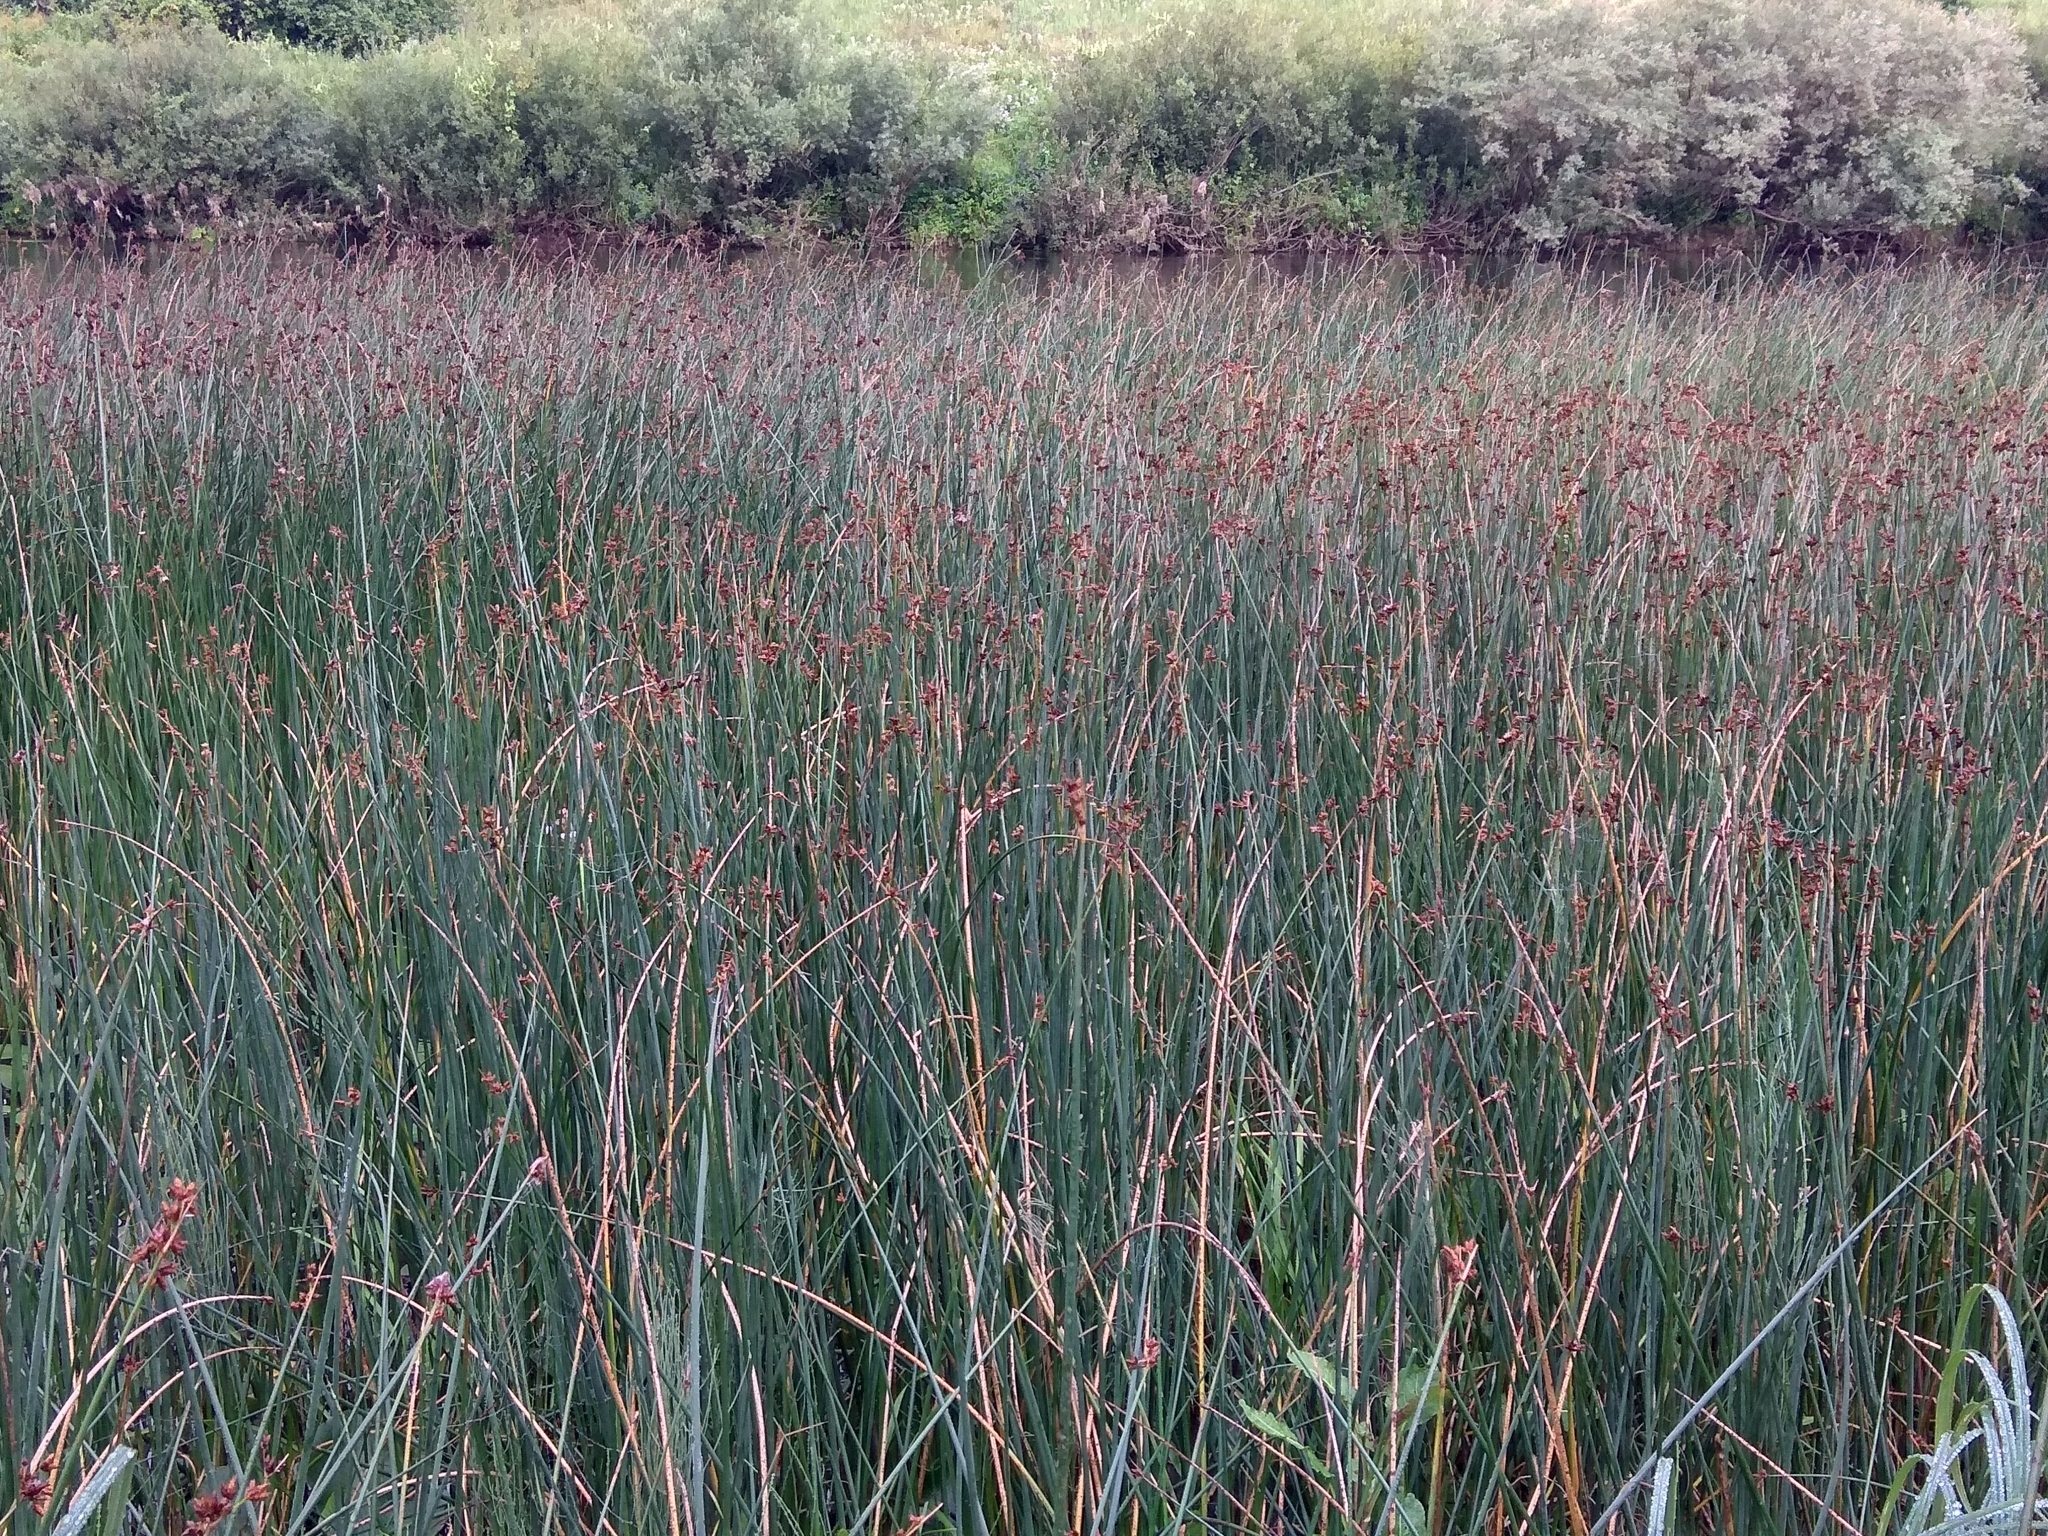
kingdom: Plantae
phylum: Tracheophyta
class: Liliopsida
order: Poales
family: Cyperaceae
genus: Schoenoplectus
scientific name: Schoenoplectus lacustris
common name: Common club-rush
